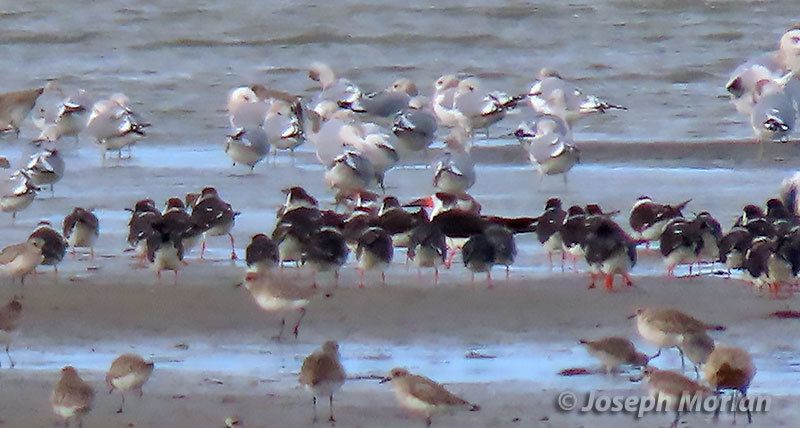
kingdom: Animalia
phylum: Chordata
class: Aves
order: Charadriiformes
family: Laridae
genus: Rynchops
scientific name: Rynchops niger
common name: Black skimmer
